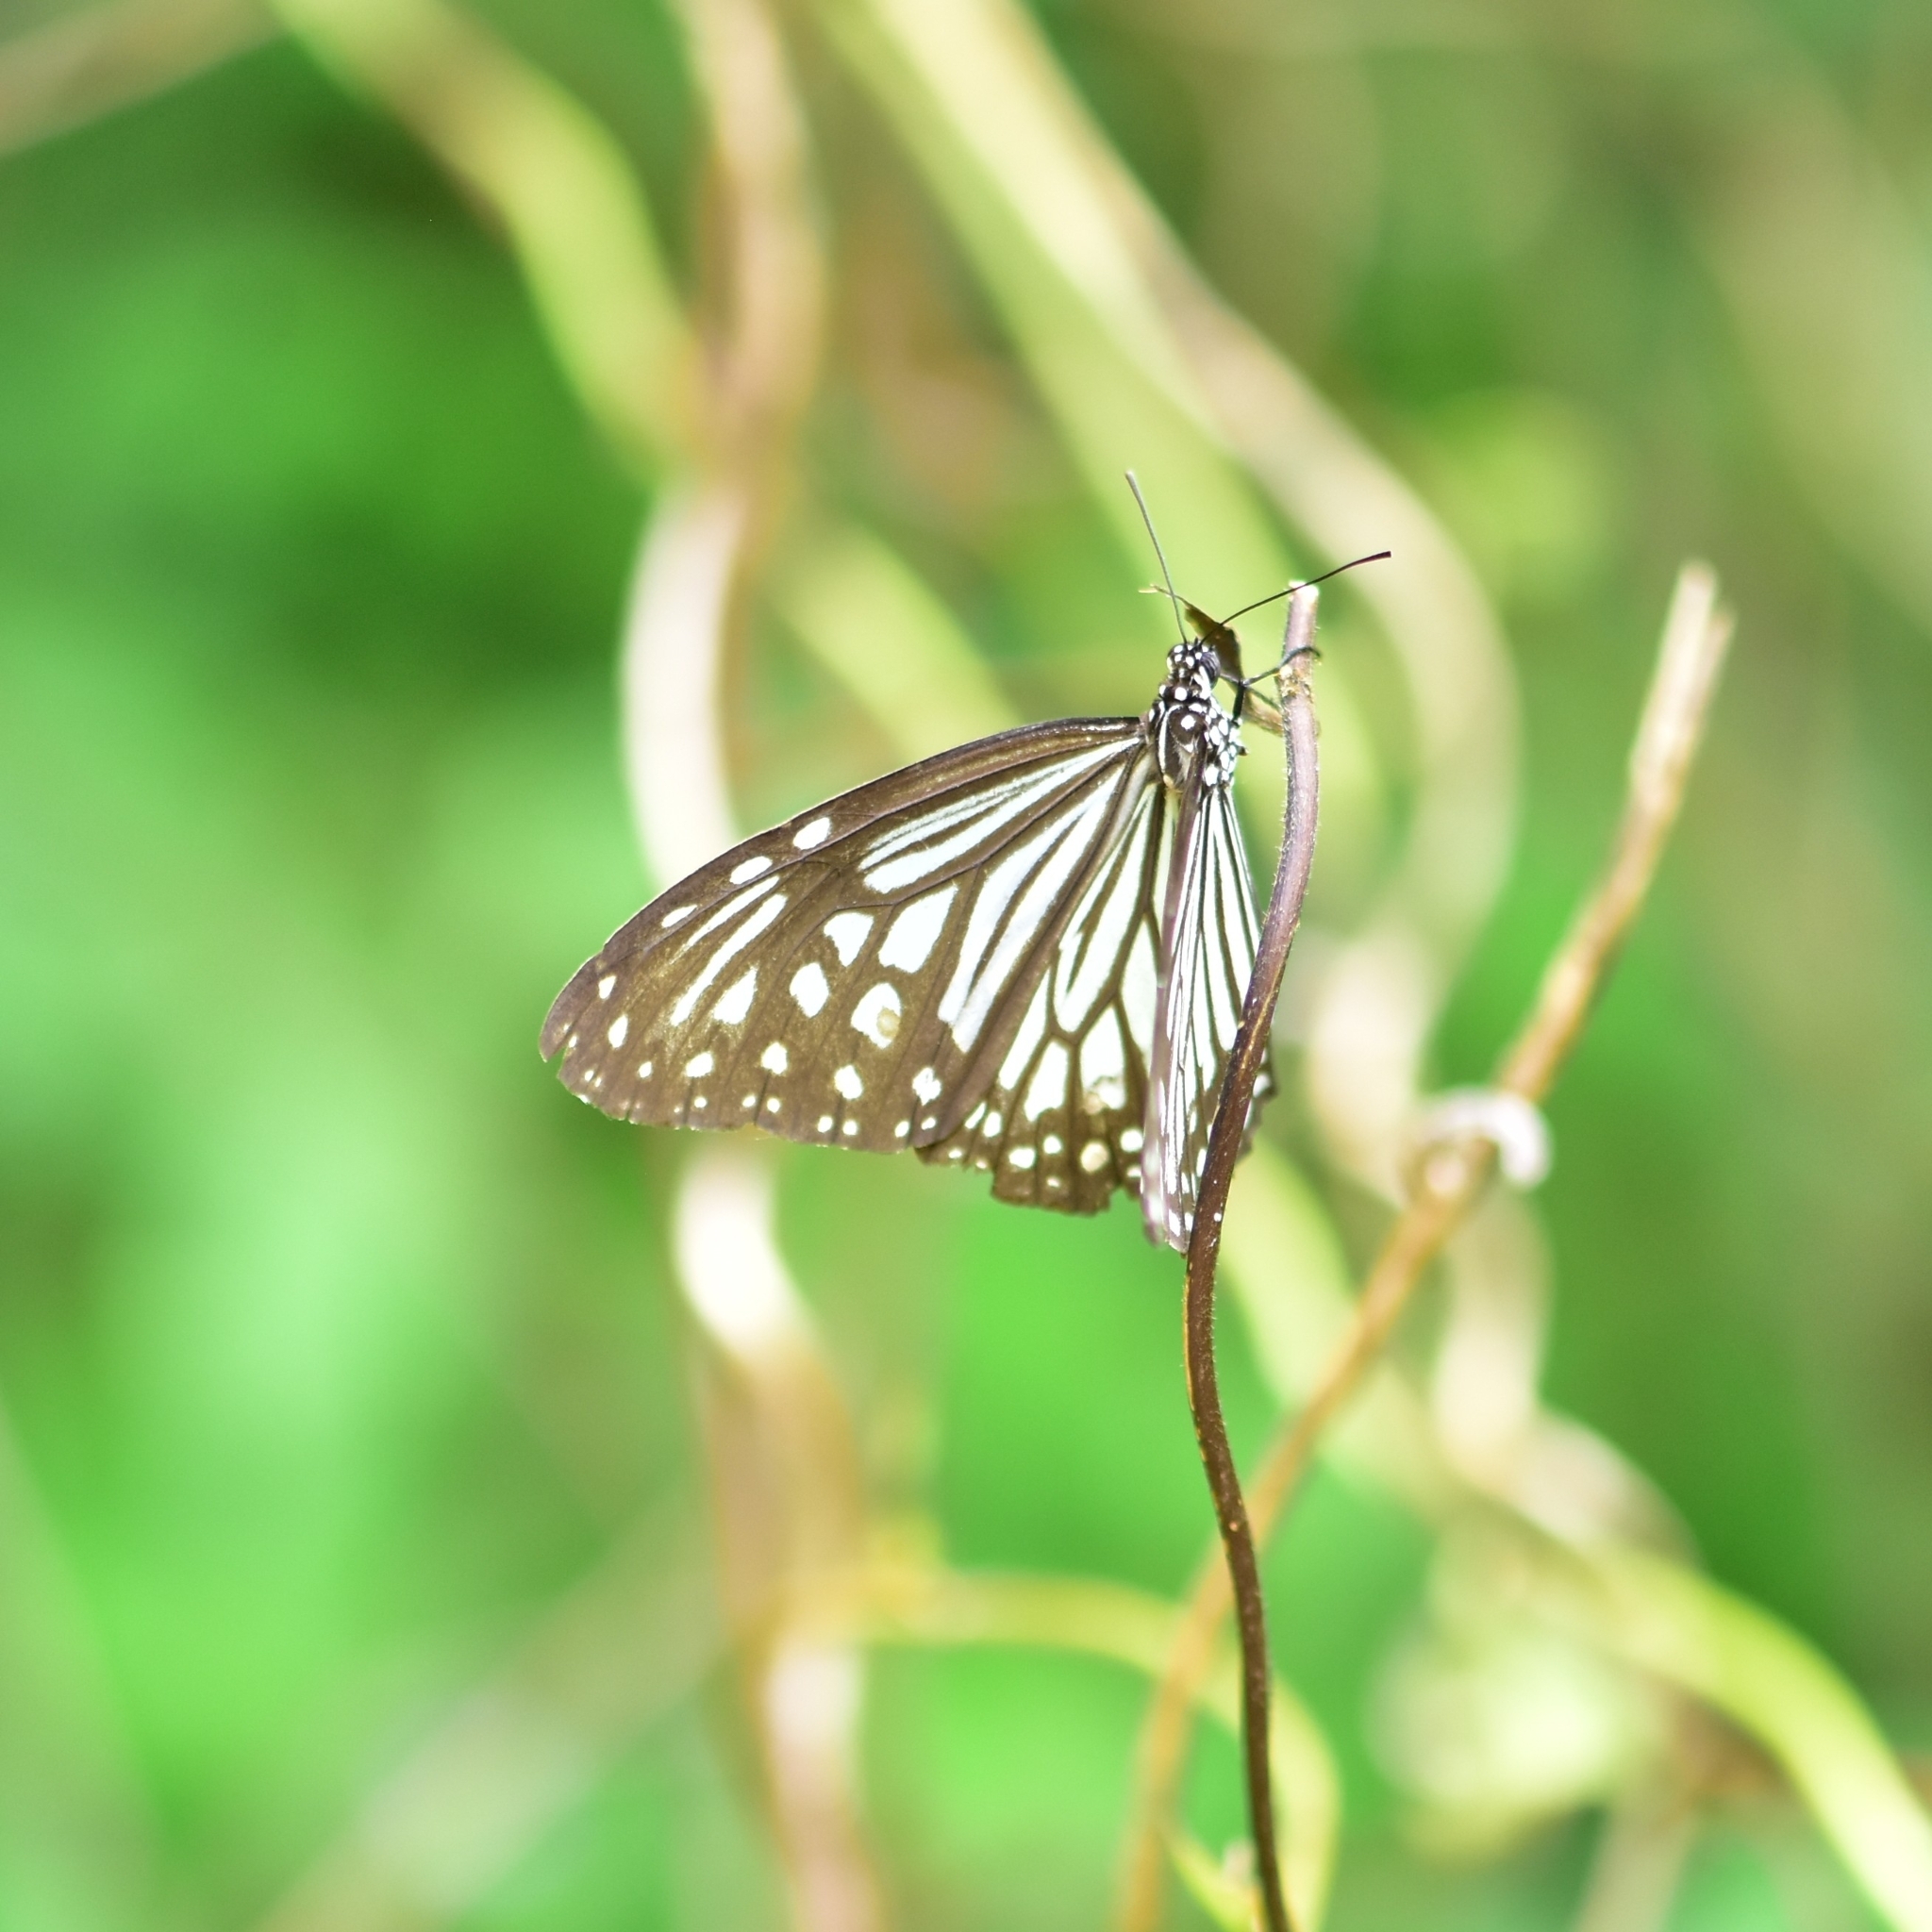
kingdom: Animalia
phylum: Arthropoda
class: Insecta
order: Lepidoptera
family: Nymphalidae
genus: Parantica
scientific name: Parantica aglea
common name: Glassy tiger
